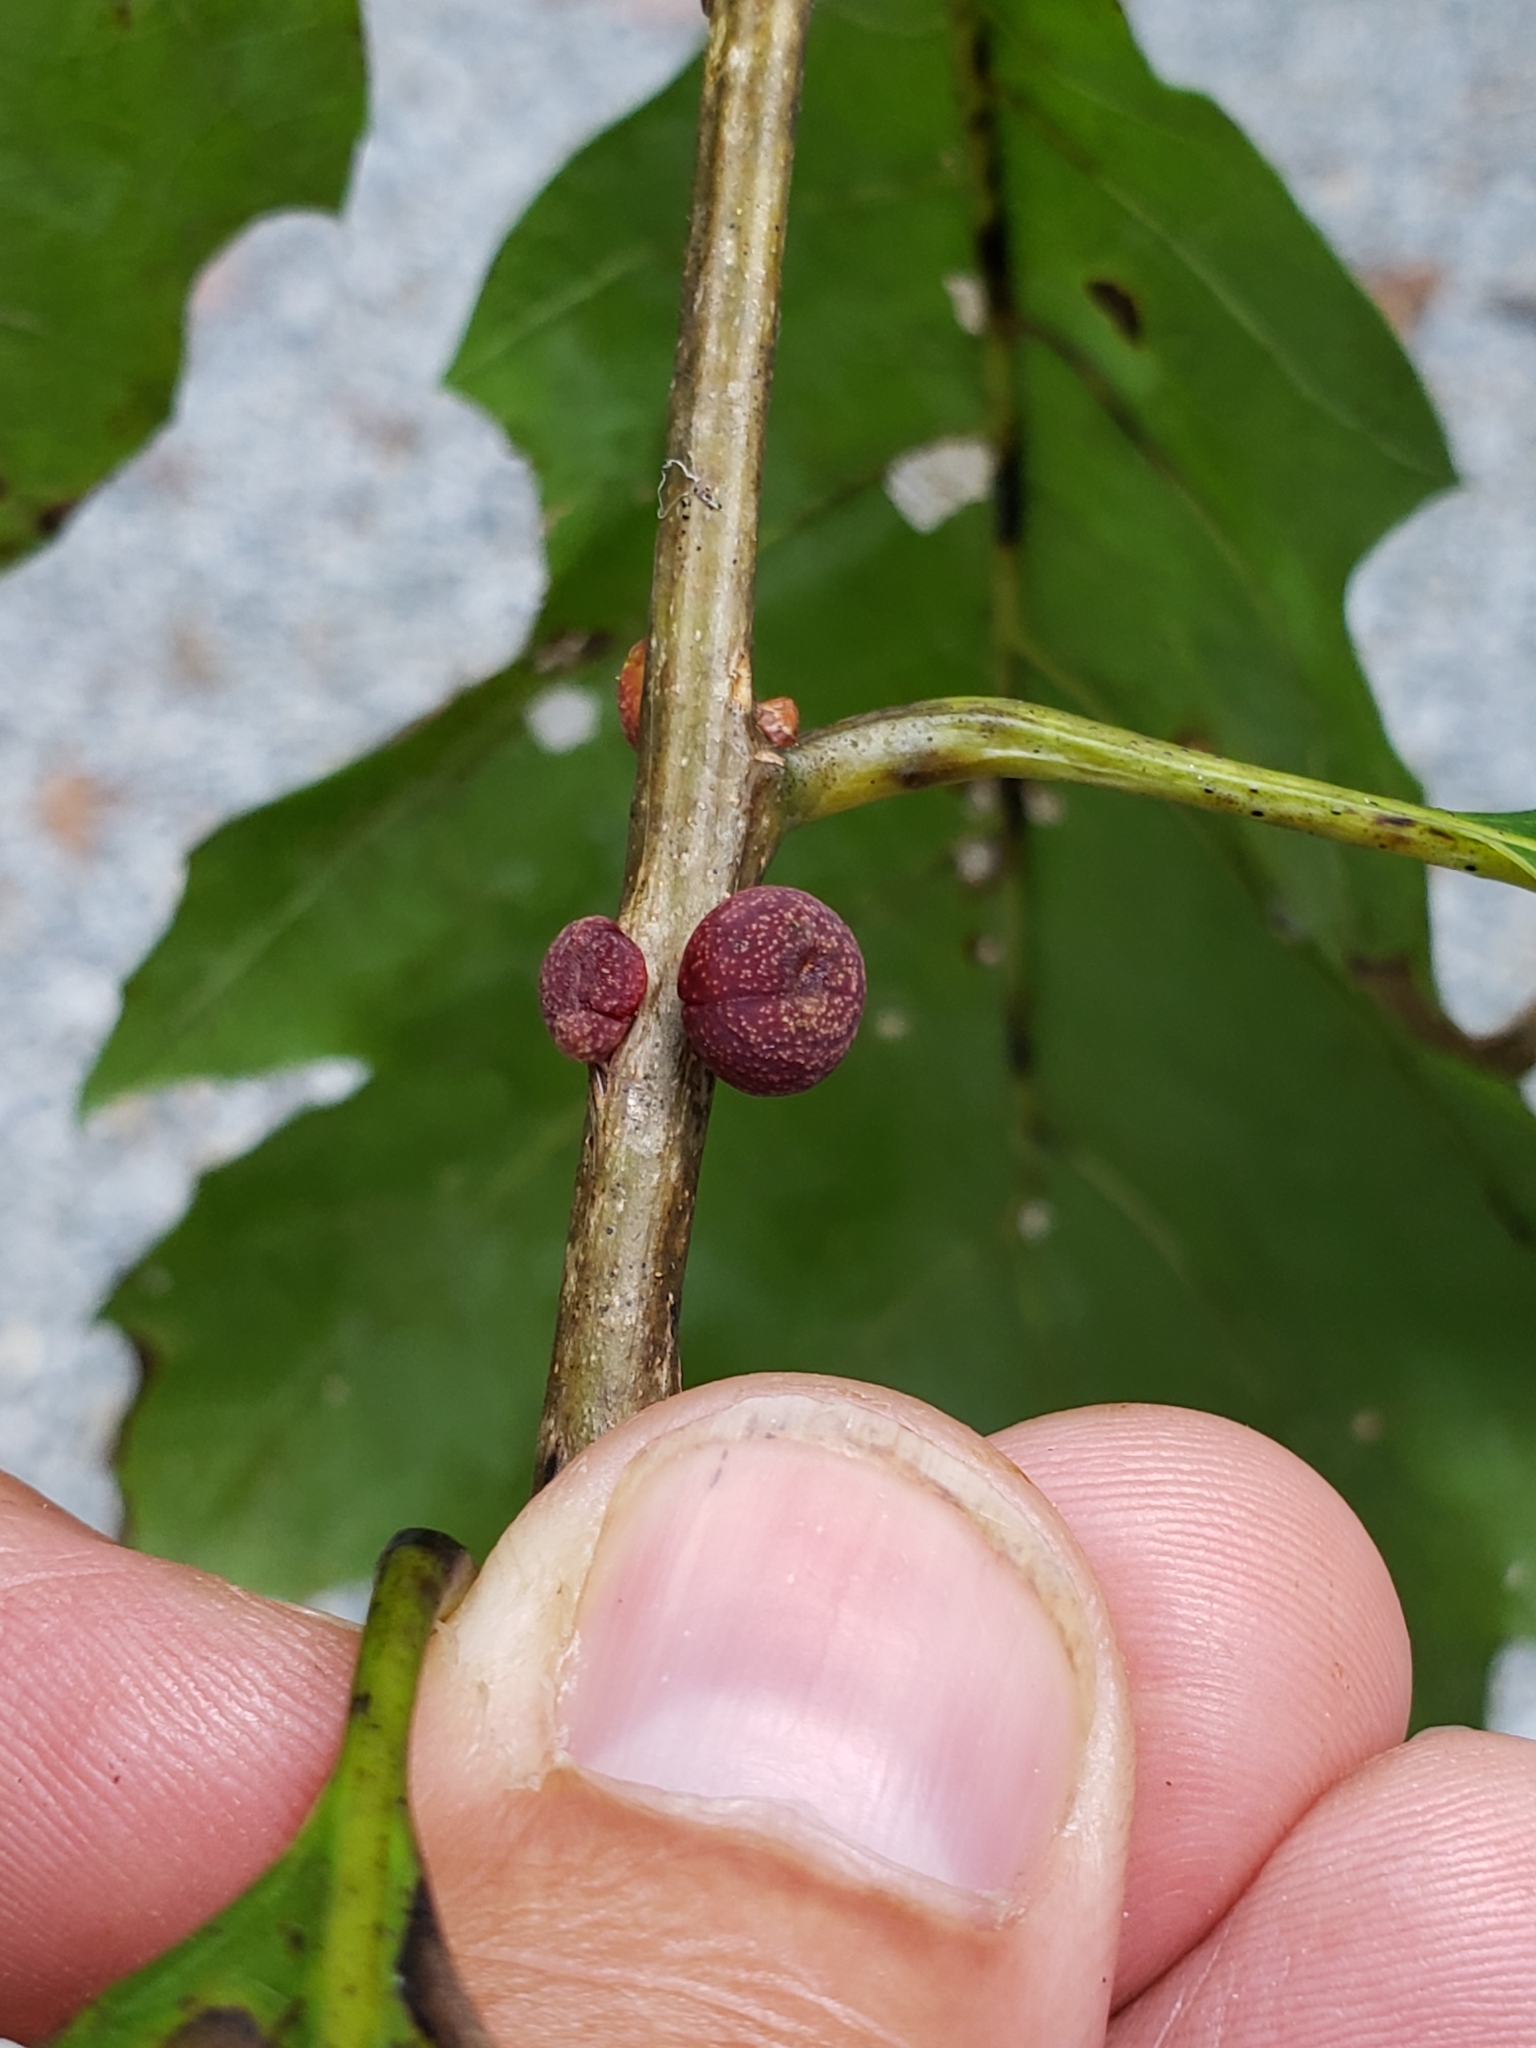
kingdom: Animalia
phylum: Arthropoda
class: Insecta
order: Hymenoptera
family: Cynipidae
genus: Kokkocynips
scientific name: Kokkocynips imbricariae
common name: Banded bullet gall wasp
